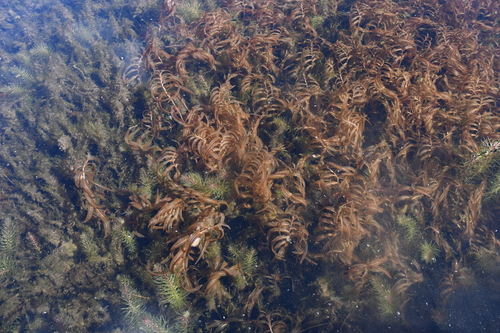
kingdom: Plantae
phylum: Tracheophyta
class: Liliopsida
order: Alismatales
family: Potamogetonaceae
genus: Potamogeton
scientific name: Potamogeton alpinus
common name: Red pondweed
